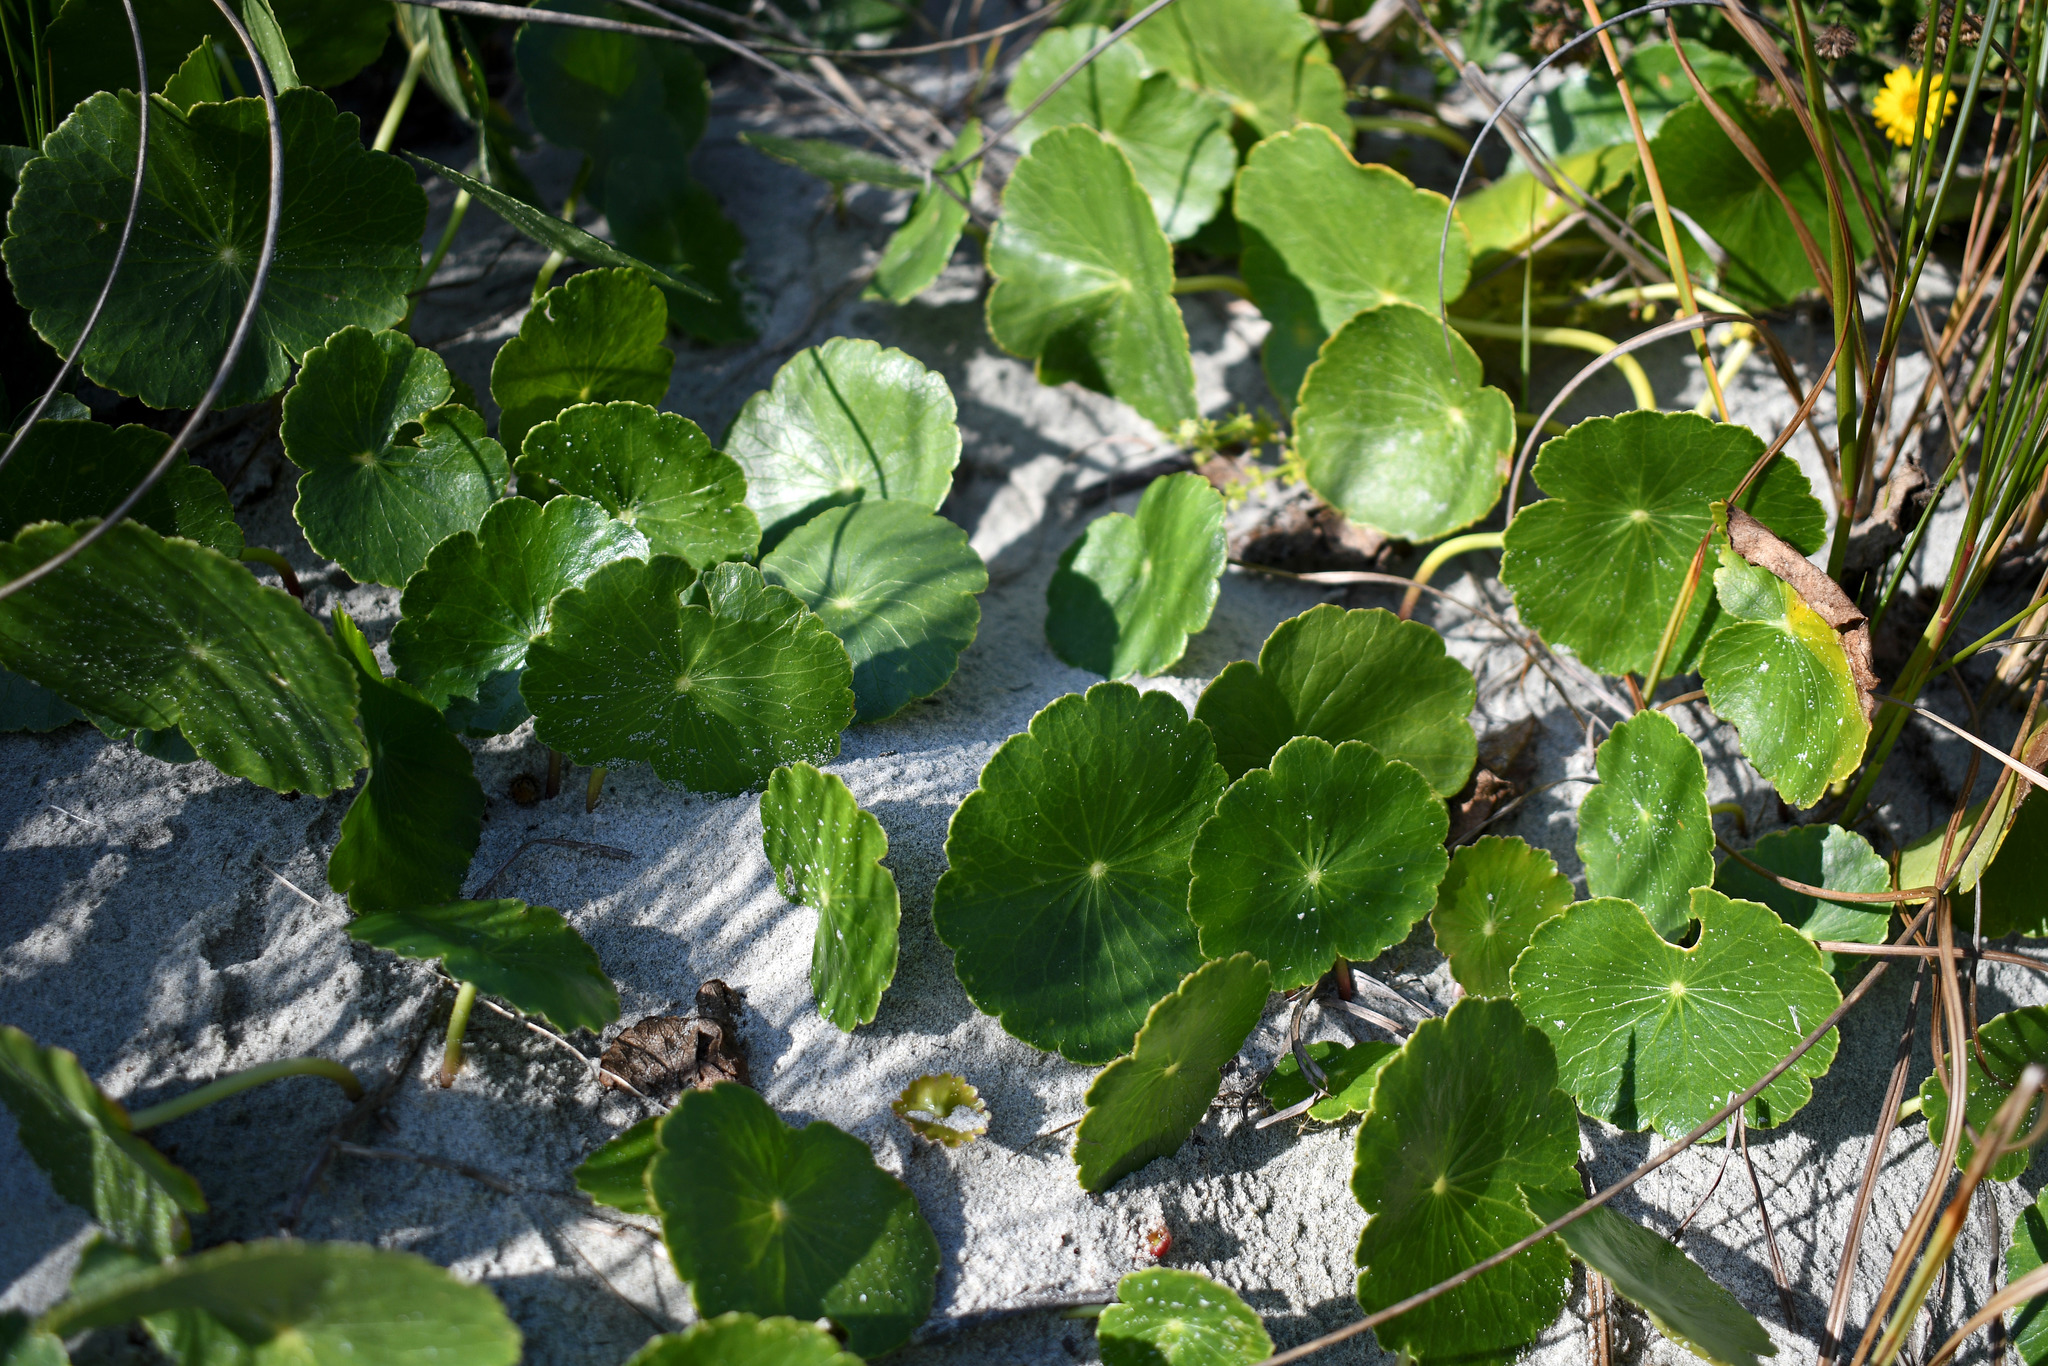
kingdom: Plantae
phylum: Tracheophyta
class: Magnoliopsida
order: Apiales
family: Araliaceae
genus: Hydrocotyle
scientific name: Hydrocotyle bonariensis
